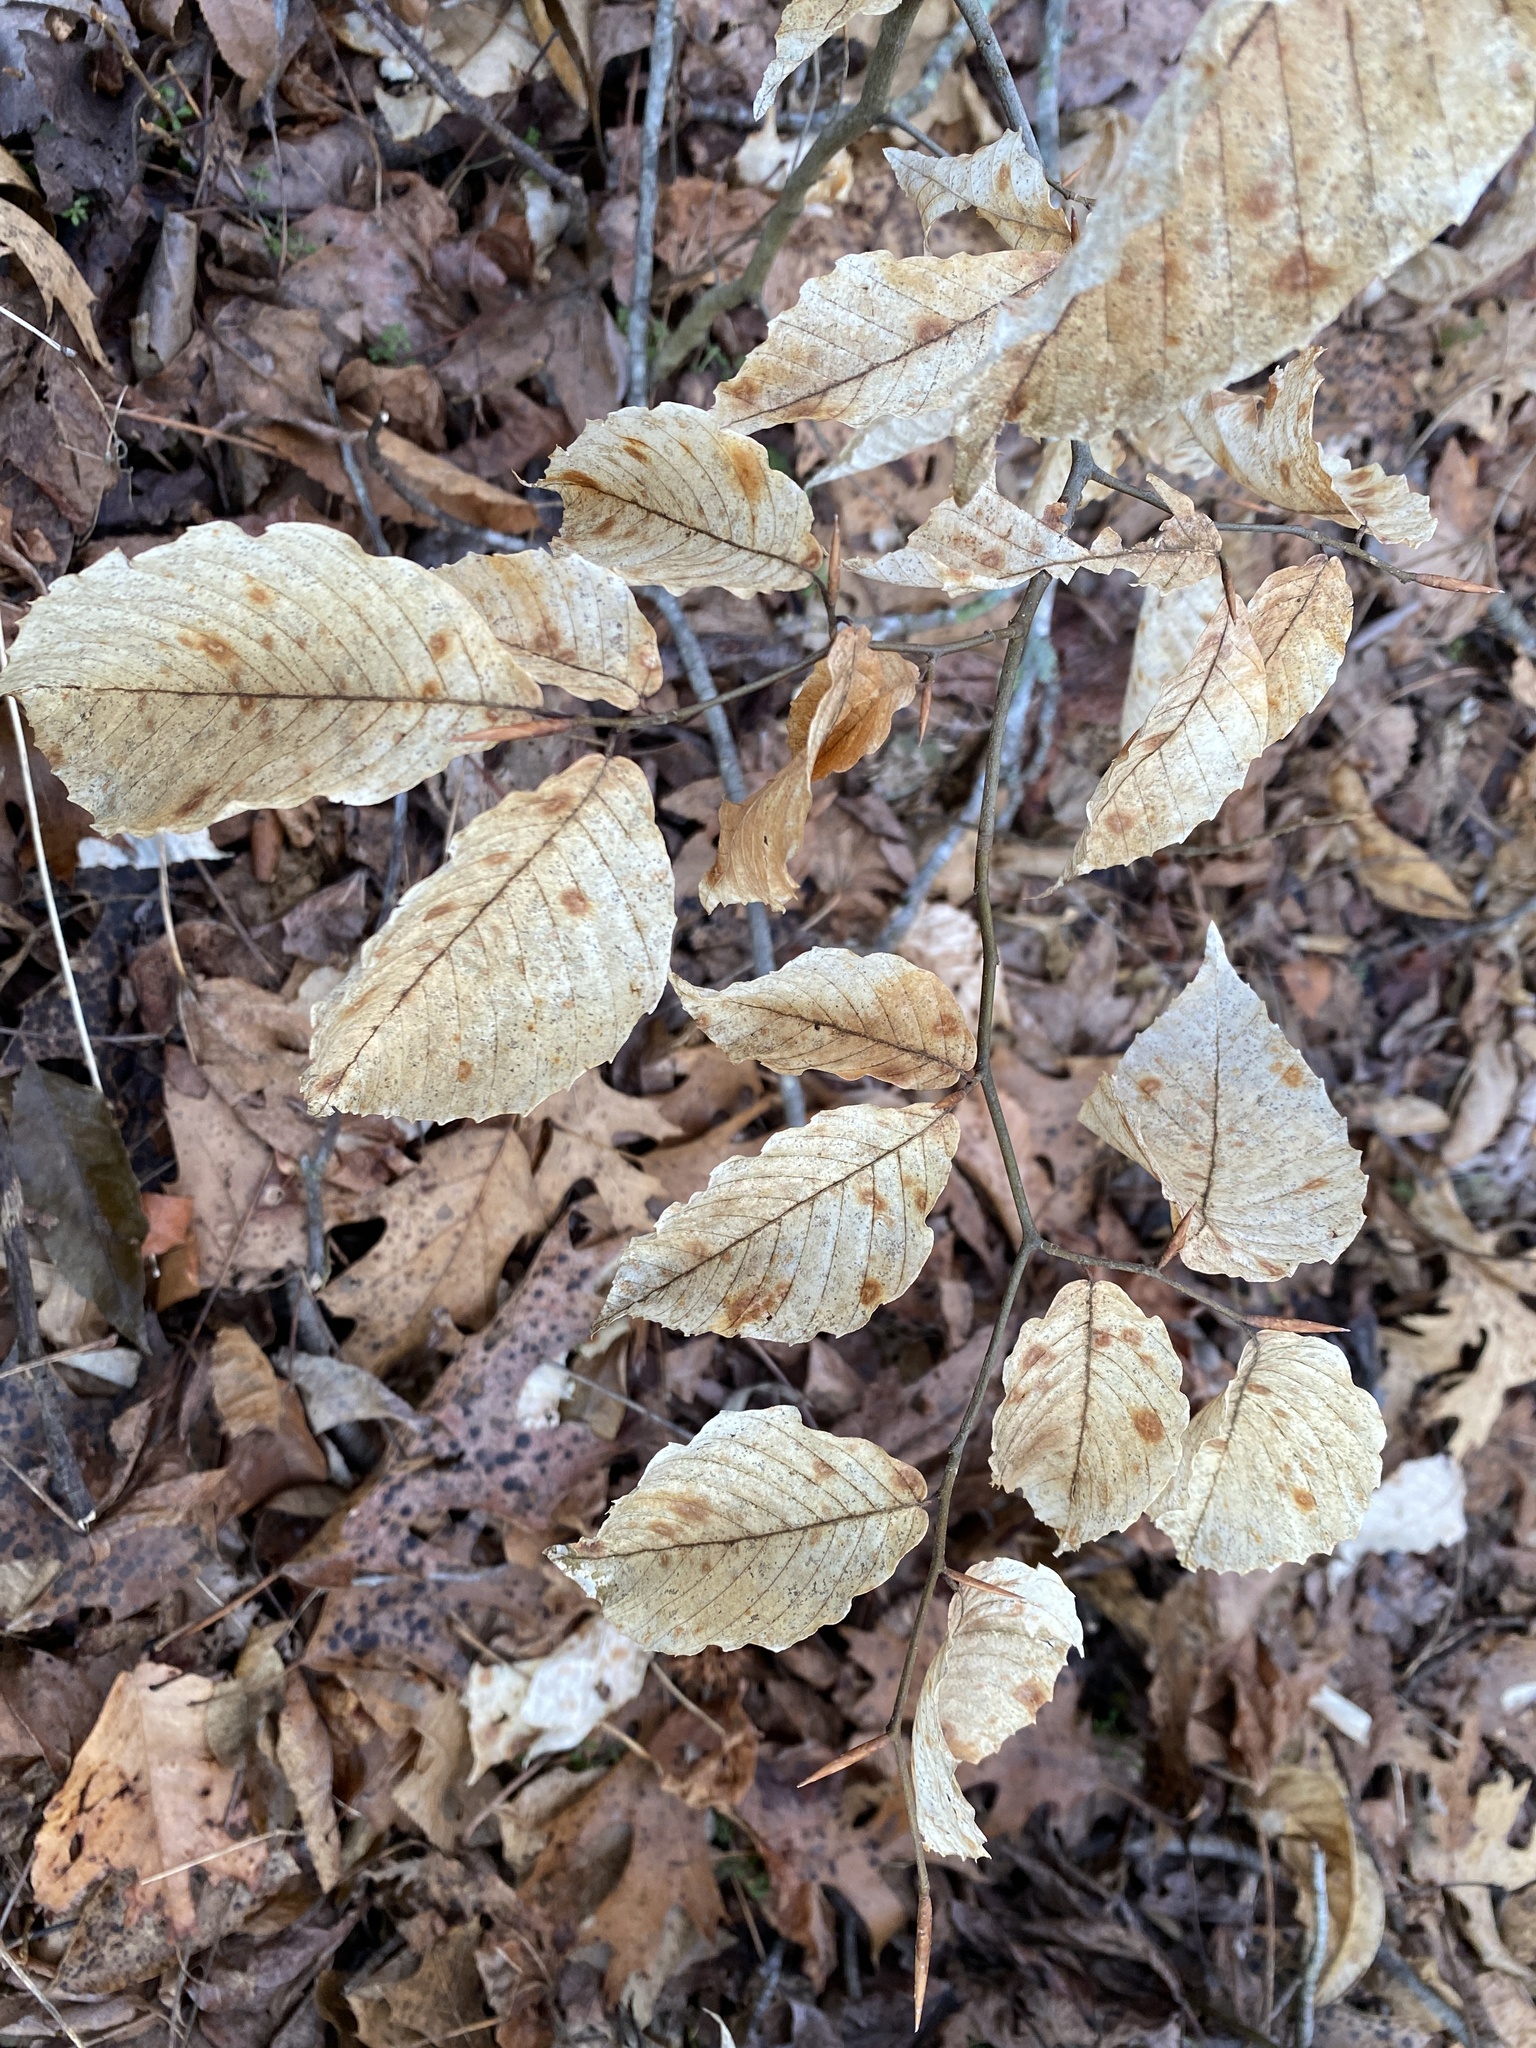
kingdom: Plantae
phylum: Tracheophyta
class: Magnoliopsida
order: Fagales
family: Fagaceae
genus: Fagus
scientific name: Fagus grandifolia
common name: American beech
